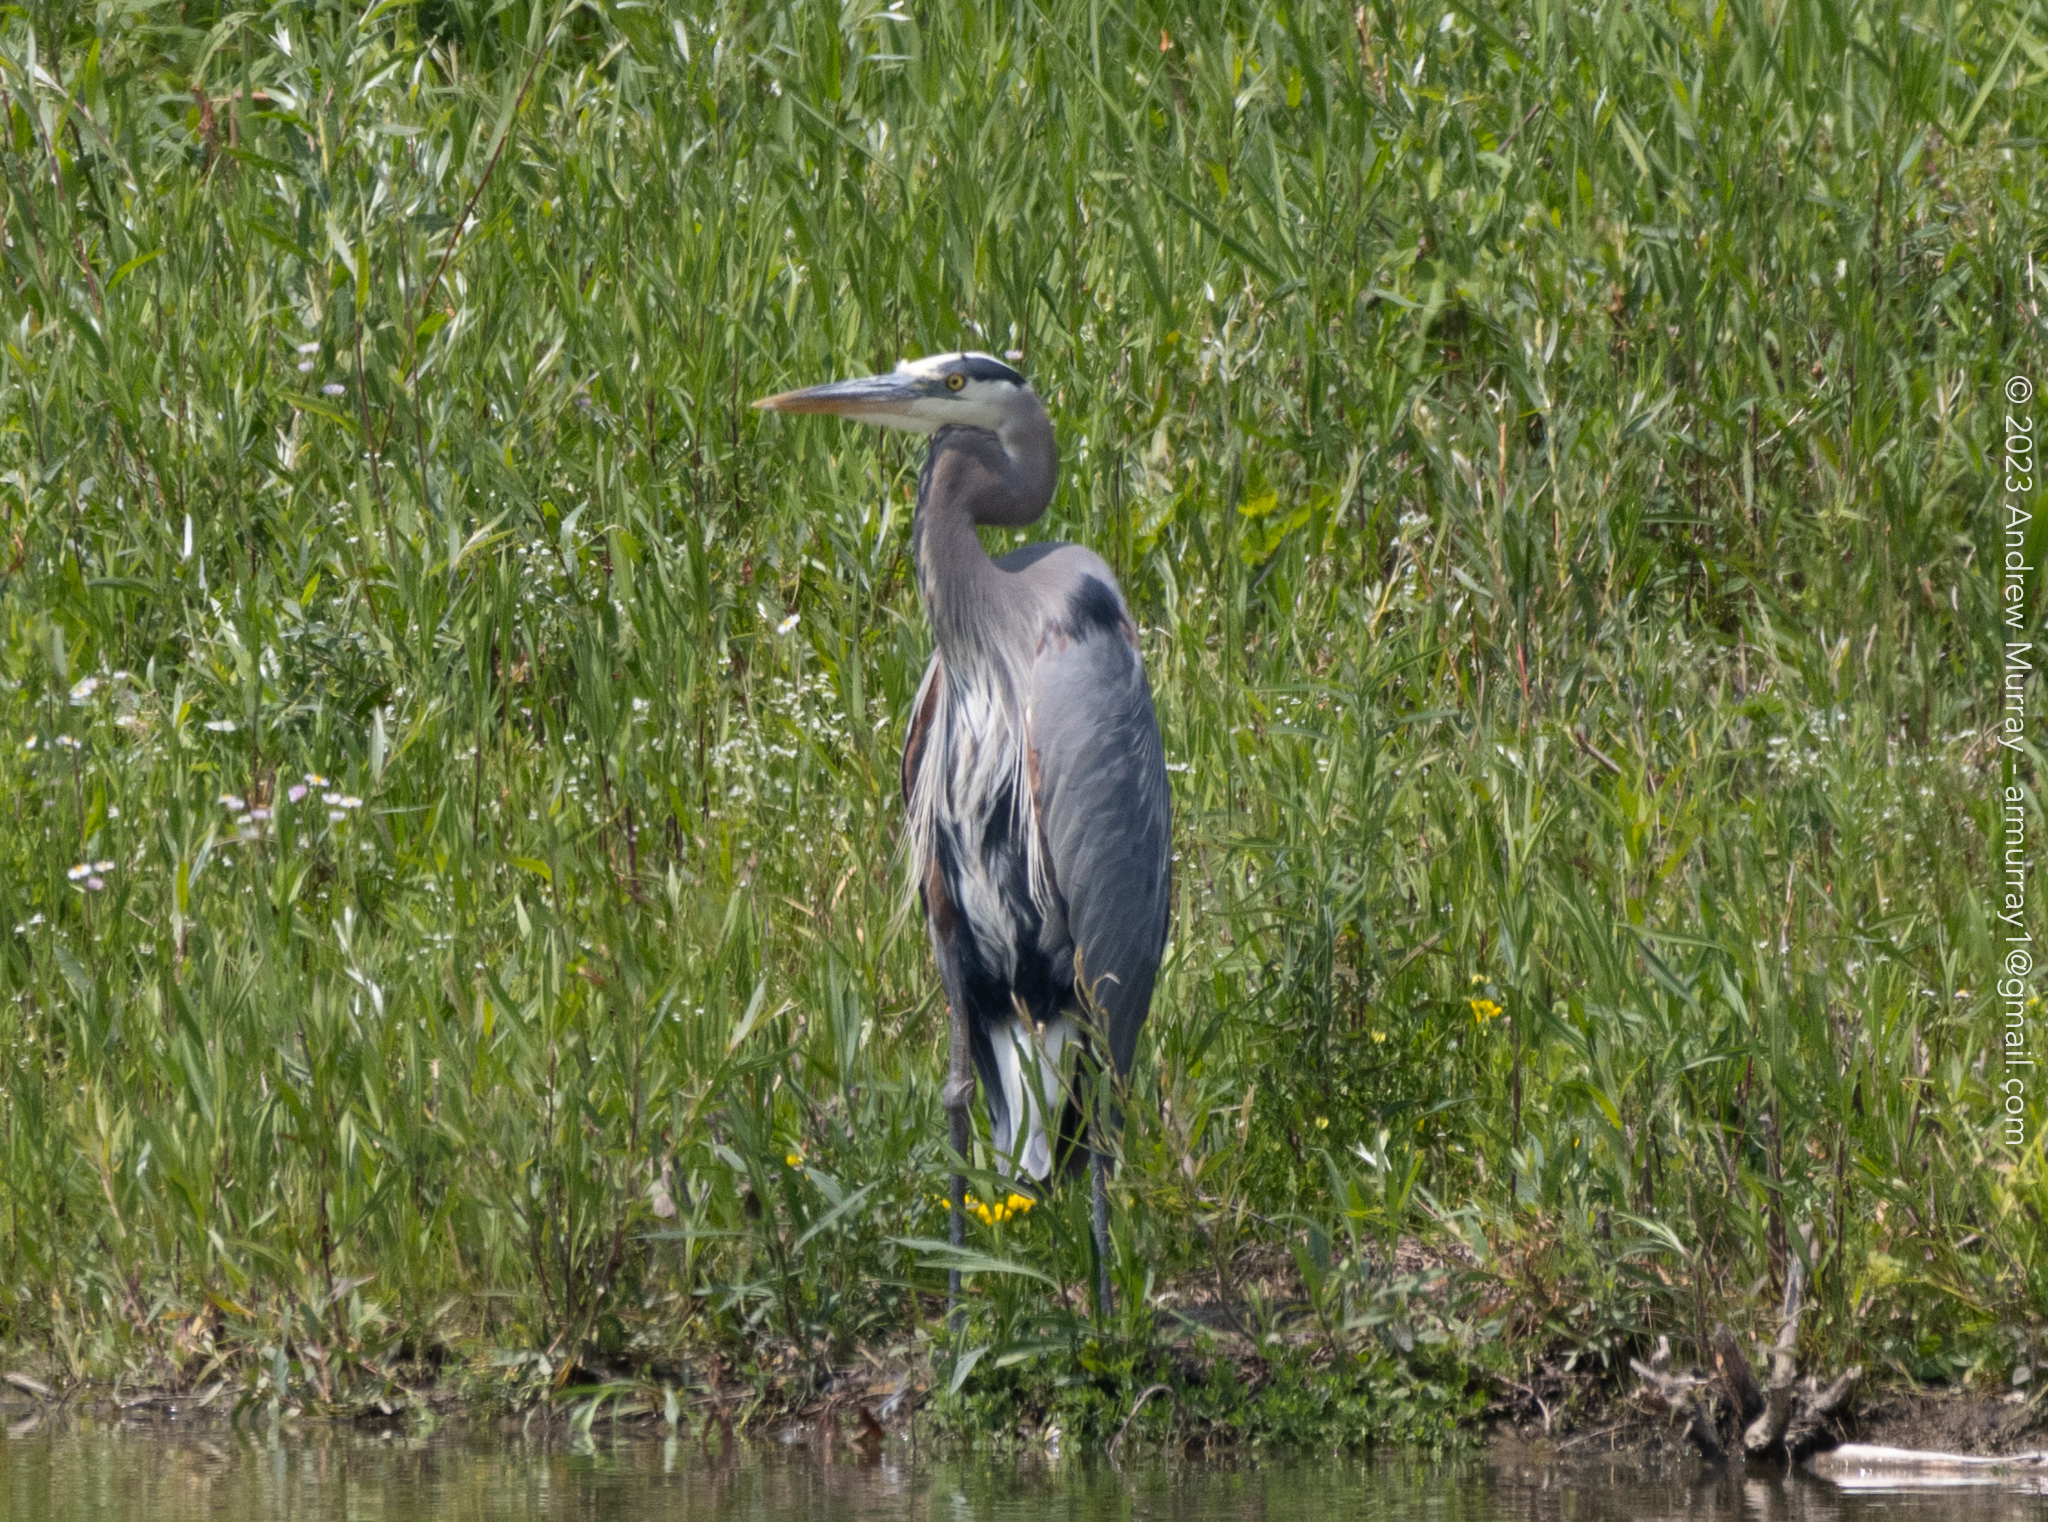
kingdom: Animalia
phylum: Chordata
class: Aves
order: Pelecaniformes
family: Ardeidae
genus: Ardea
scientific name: Ardea herodias
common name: Great blue heron
